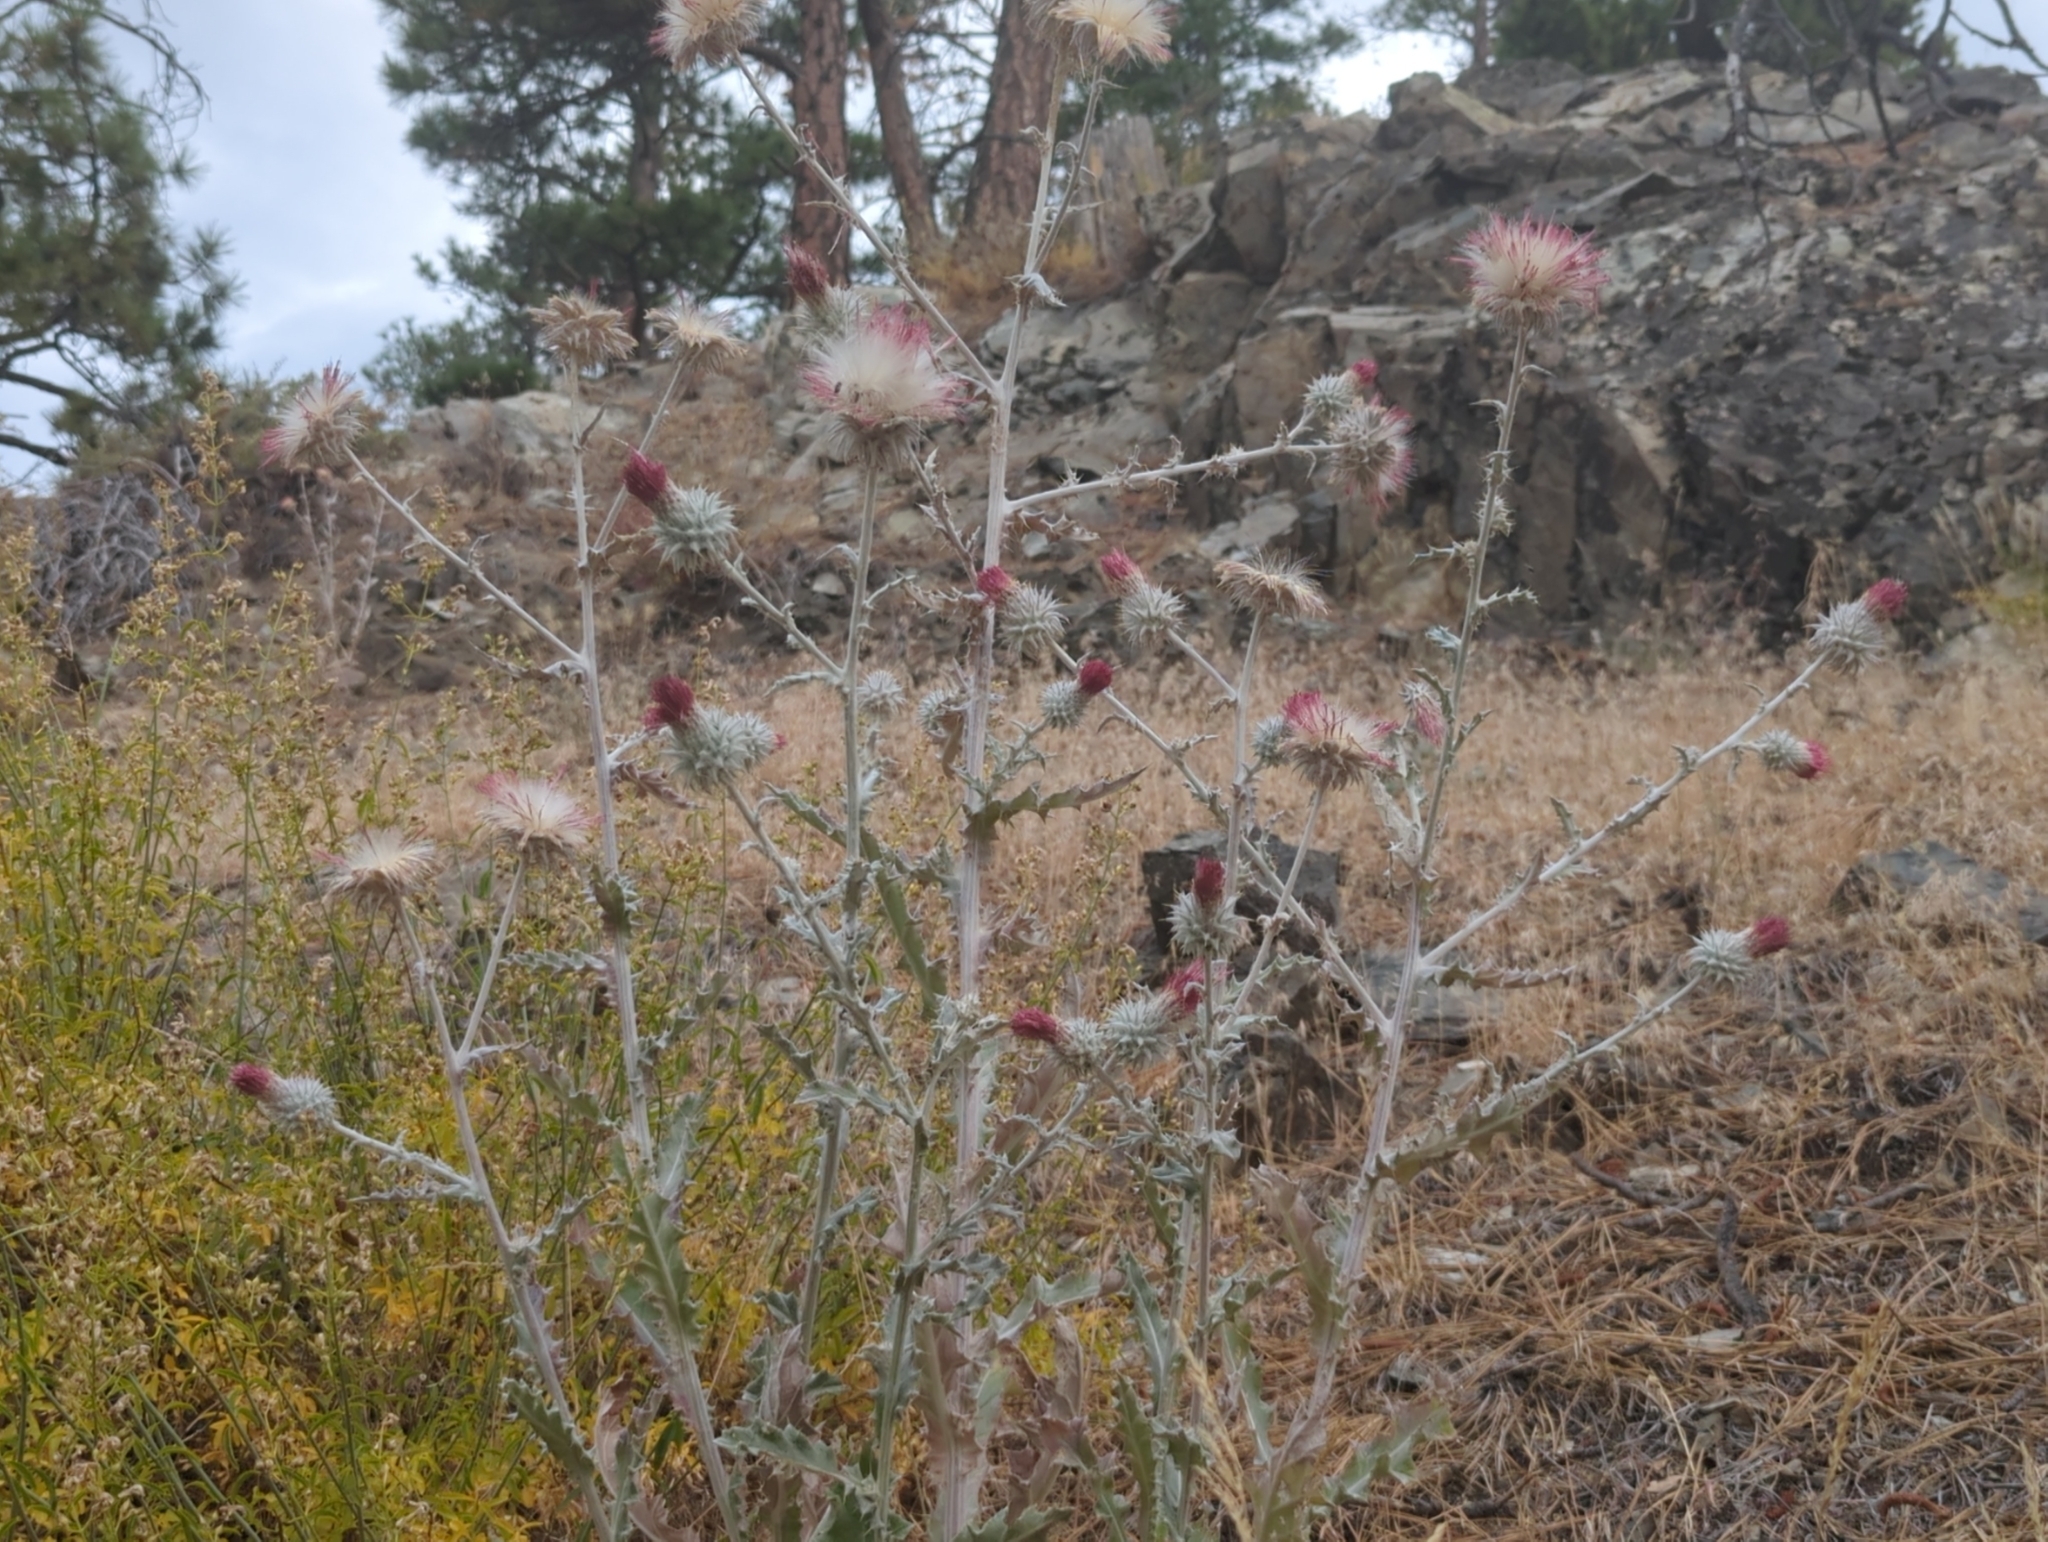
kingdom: Plantae
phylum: Tracheophyta
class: Magnoliopsida
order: Asterales
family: Asteraceae
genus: Cirsium
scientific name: Cirsium occidentale
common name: Western thistle
